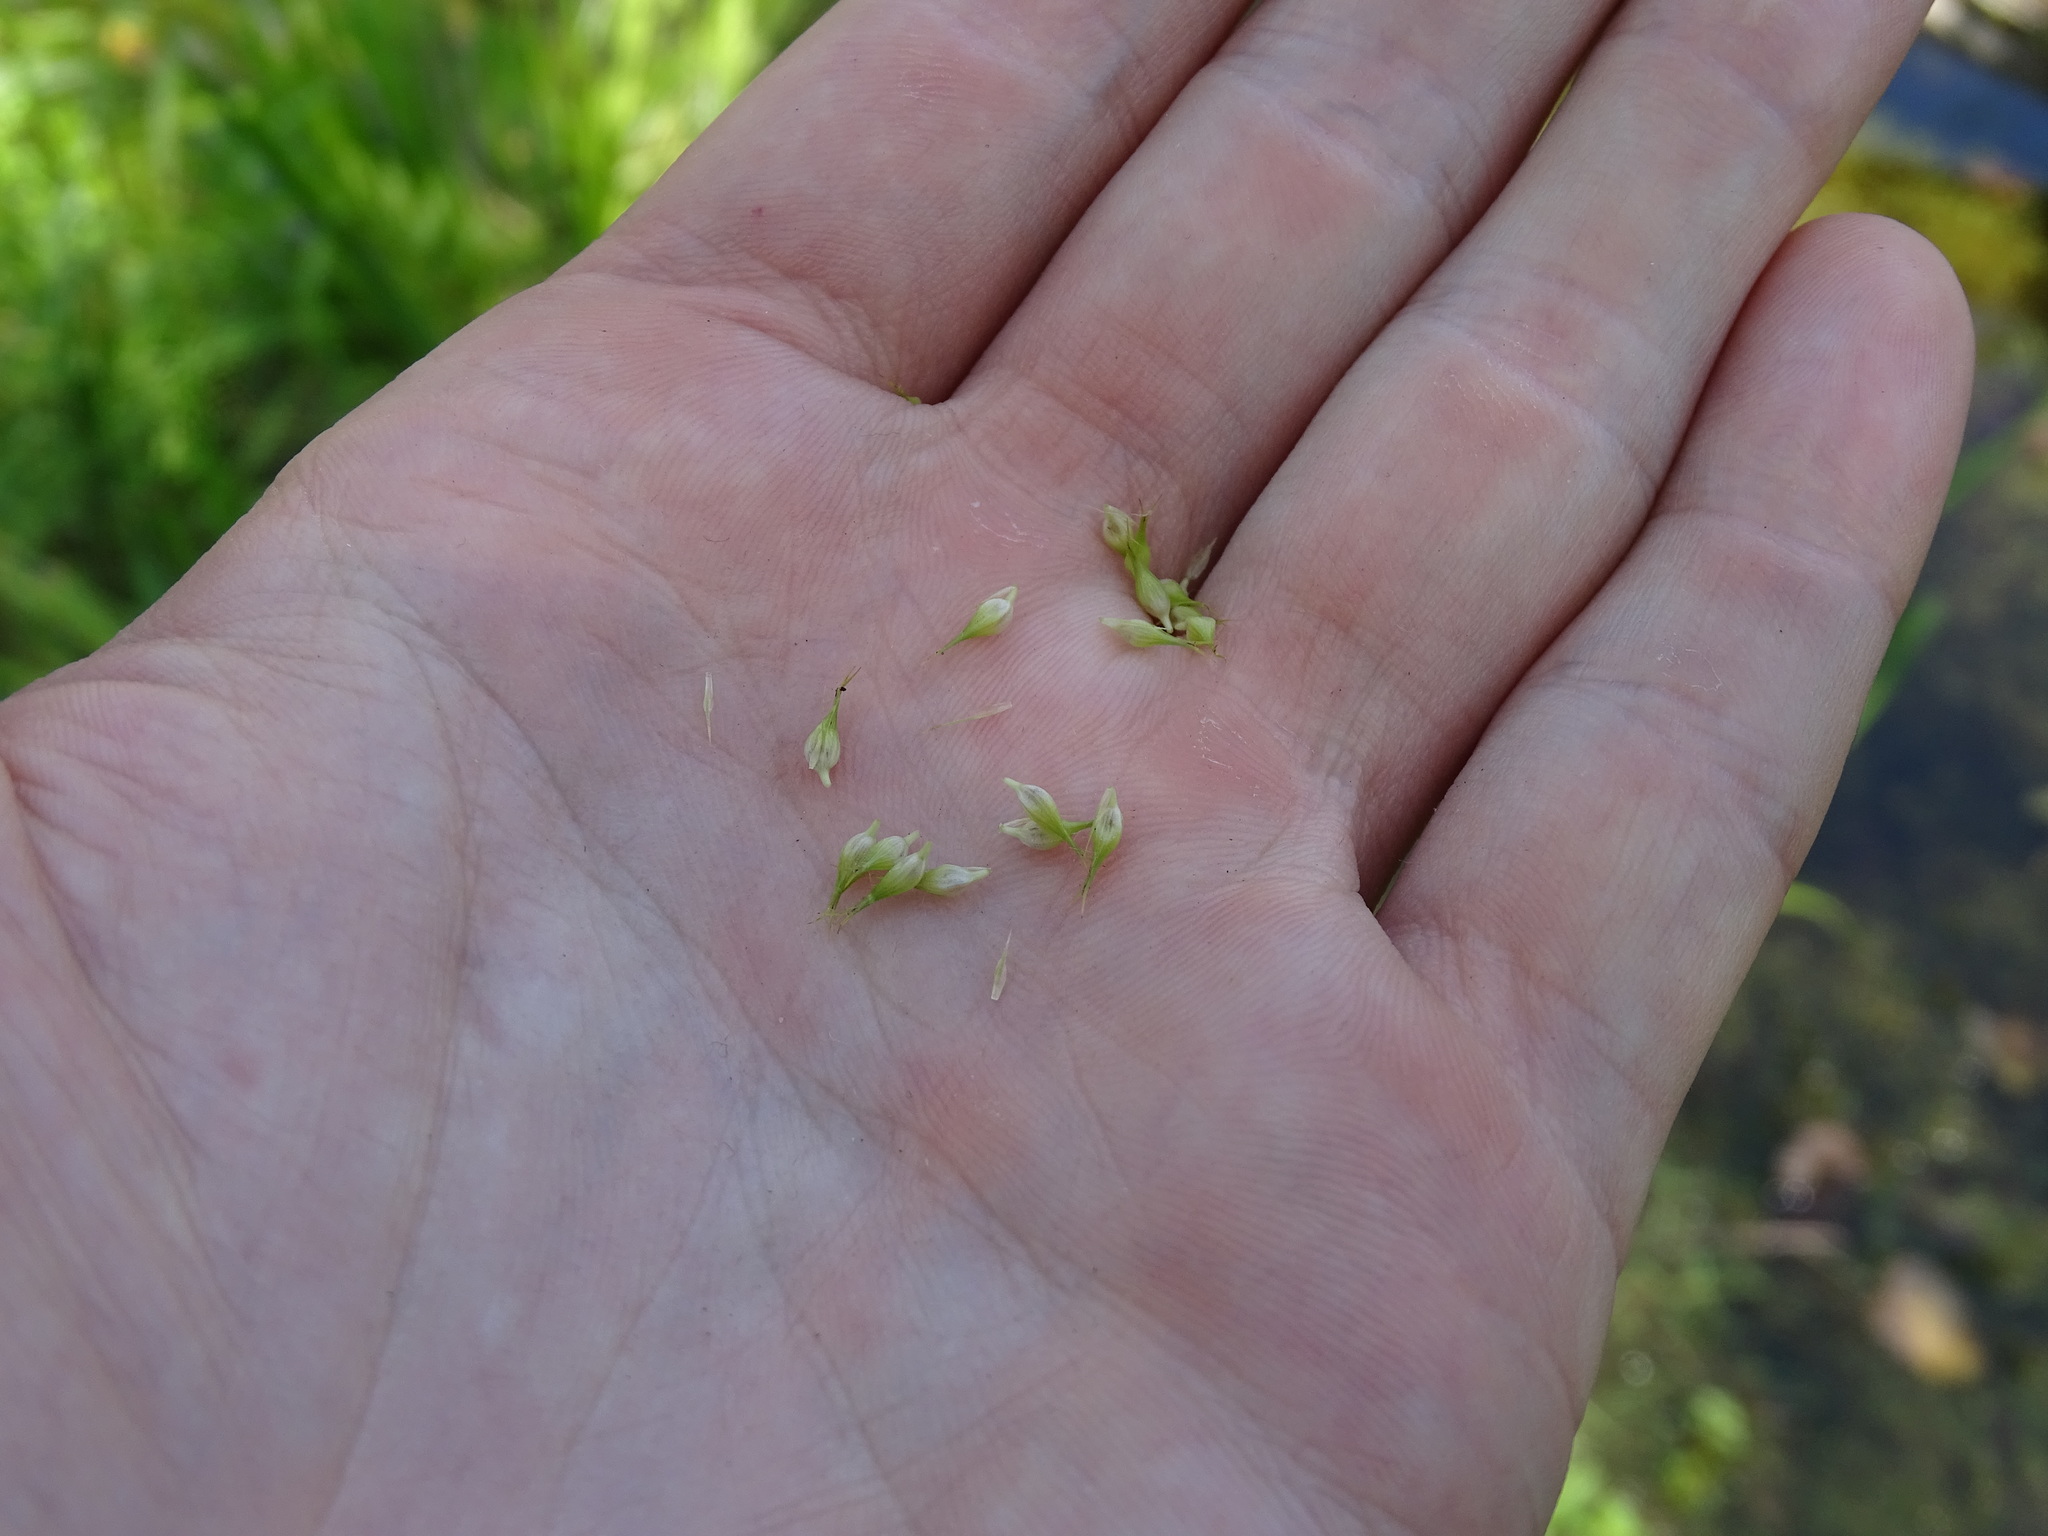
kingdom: Plantae
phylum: Tracheophyta
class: Liliopsida
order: Poales
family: Cyperaceae
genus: Carex
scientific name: Carex comosa
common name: Bristly sedge
